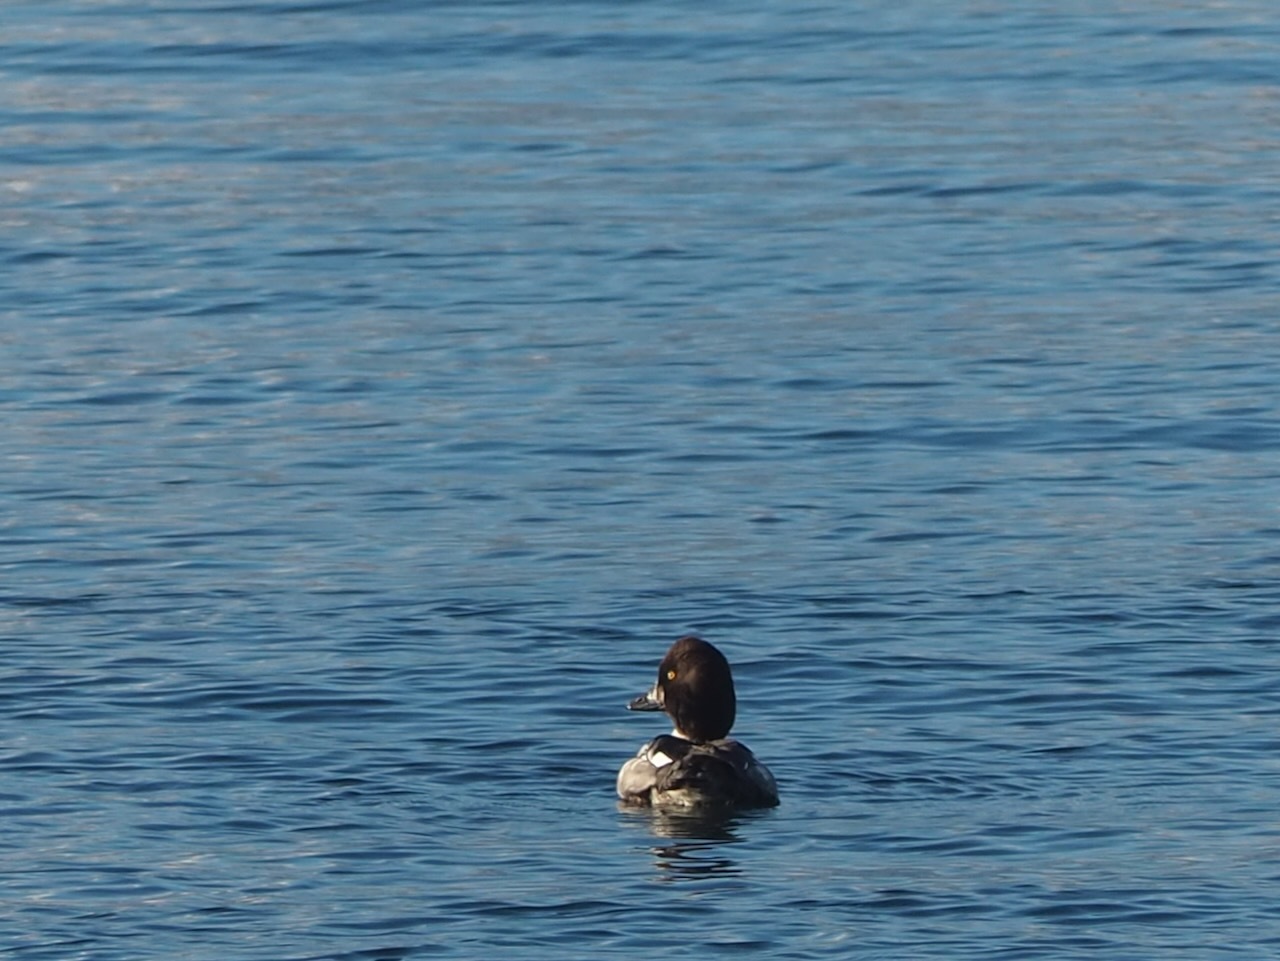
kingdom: Animalia
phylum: Chordata
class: Aves
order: Anseriformes
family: Anatidae
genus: Bucephala
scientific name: Bucephala clangula
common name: Common goldeneye
